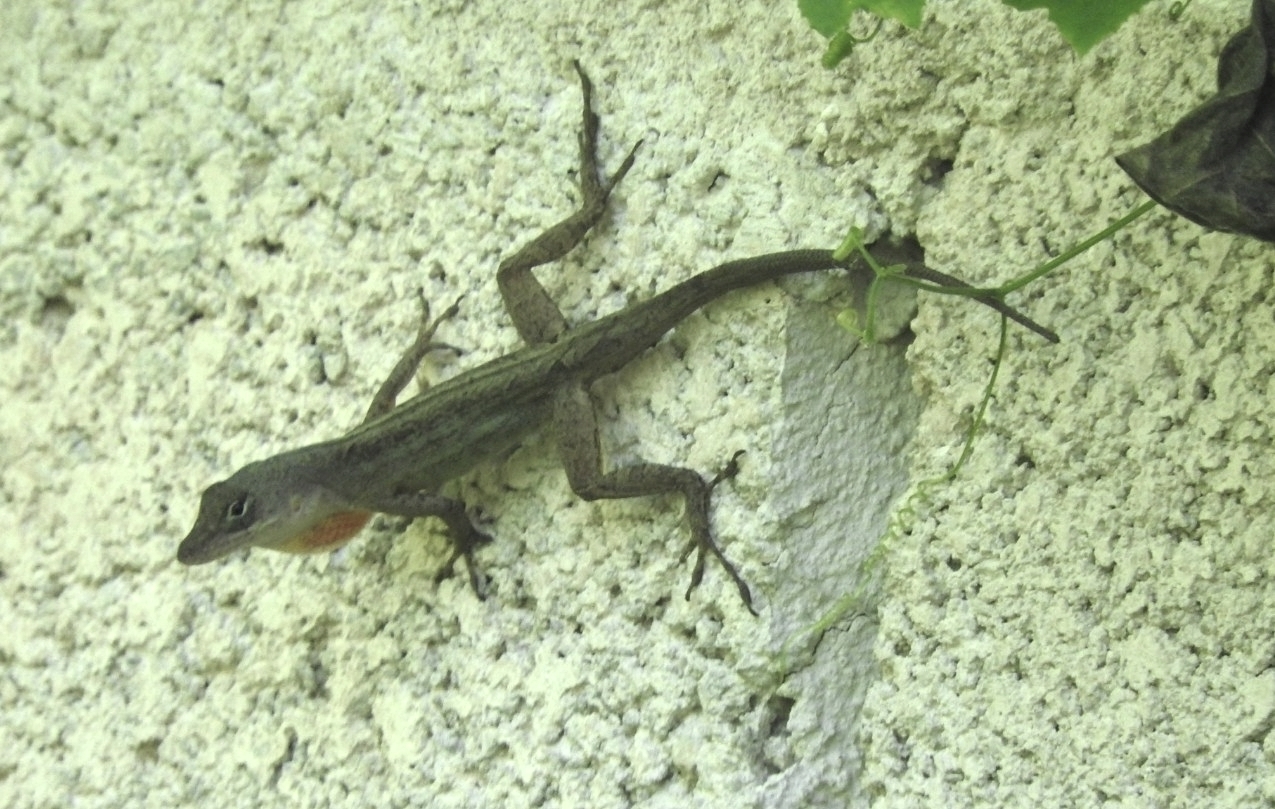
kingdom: Animalia
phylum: Chordata
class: Squamata
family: Dactyloidae
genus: Anolis
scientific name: Anolis sagrei
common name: Brown anole
